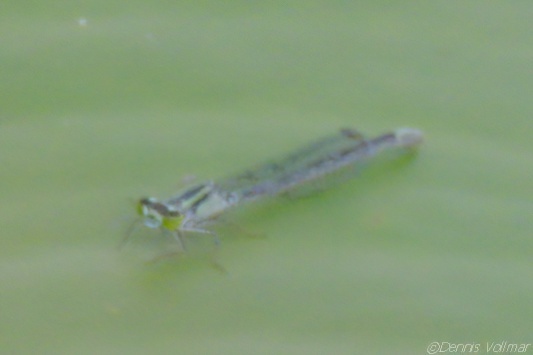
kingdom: Animalia
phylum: Arthropoda
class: Insecta
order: Odonata
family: Coenagrionidae
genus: Ischnura
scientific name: Ischnura kellicotti
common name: Lilypad forktail
